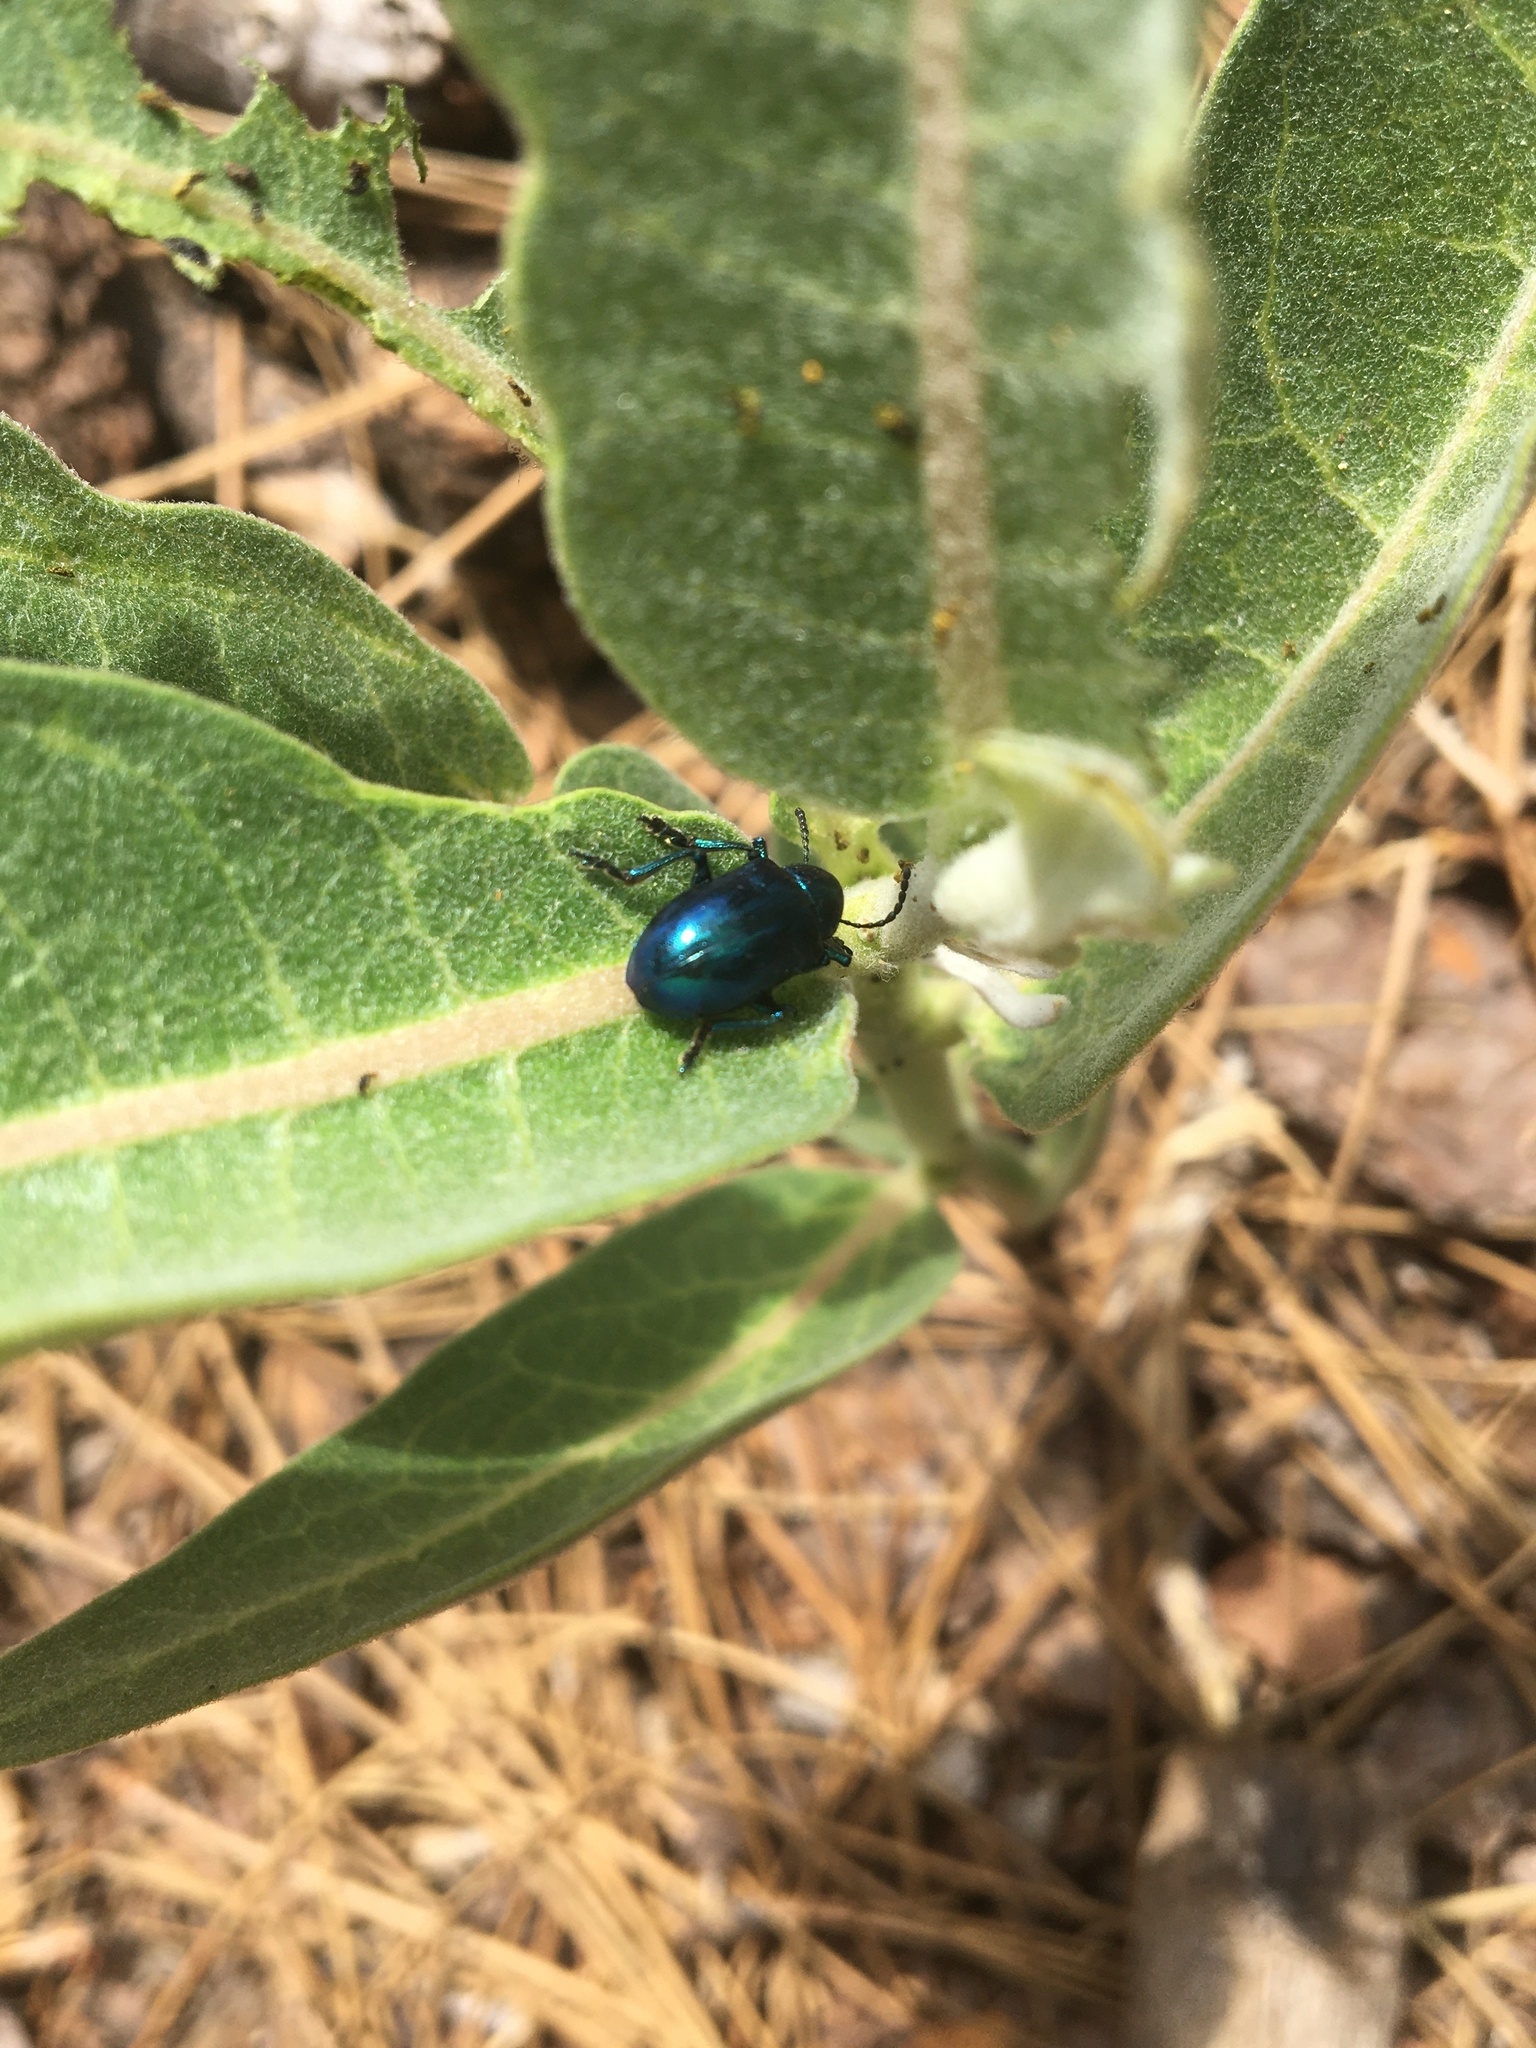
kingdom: Animalia
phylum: Arthropoda
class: Insecta
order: Coleoptera
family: Chrysomelidae
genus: Chrysochus
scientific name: Chrysochus cobaltinus
